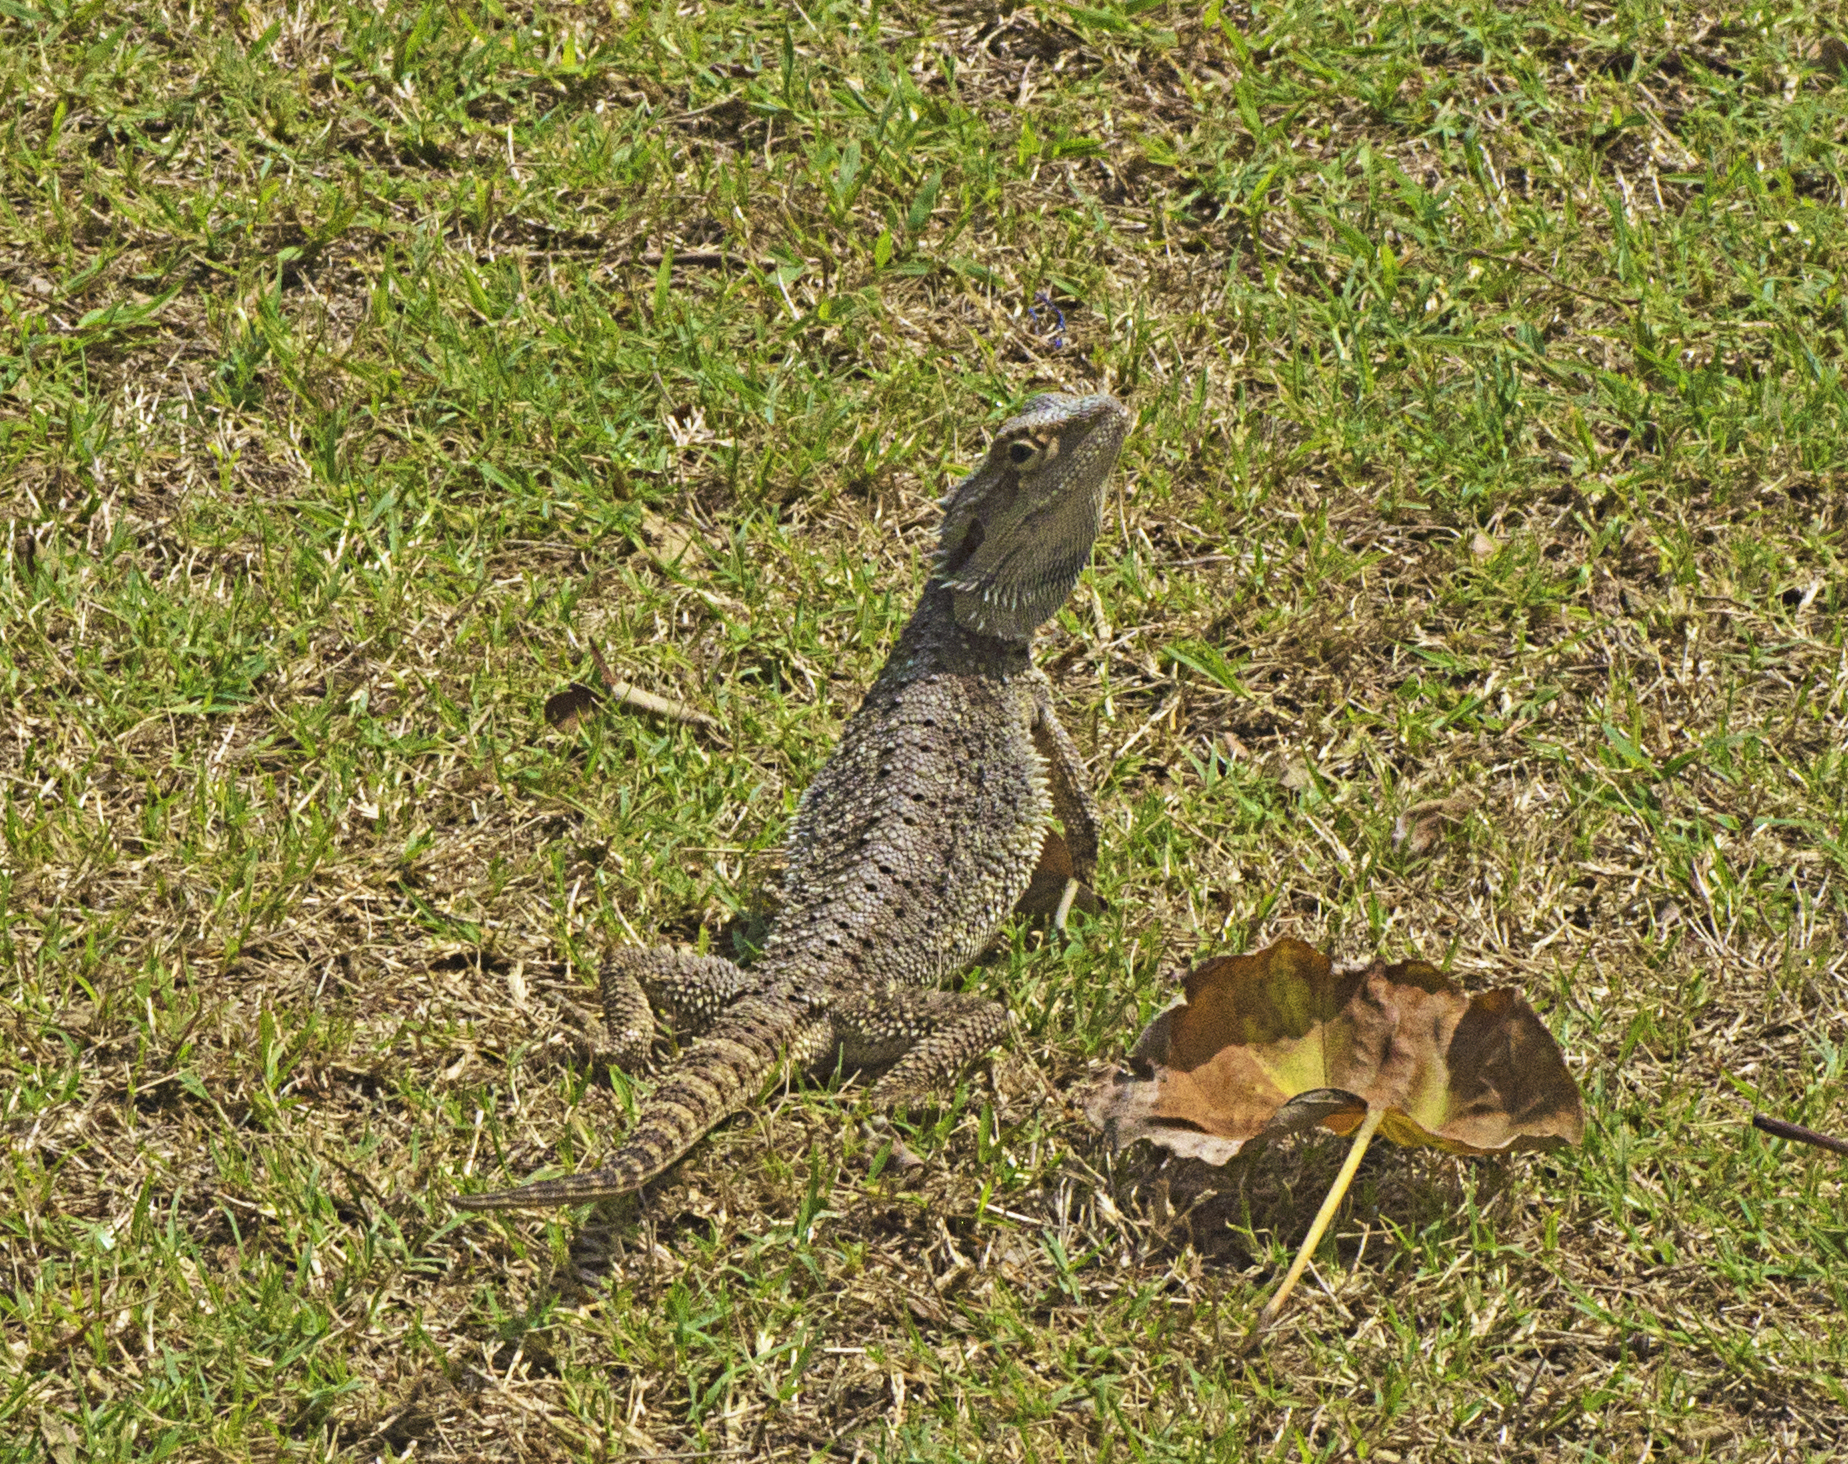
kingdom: Animalia
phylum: Chordata
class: Squamata
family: Agamidae
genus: Pogona
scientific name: Pogona barbata
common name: Bearded dragon
